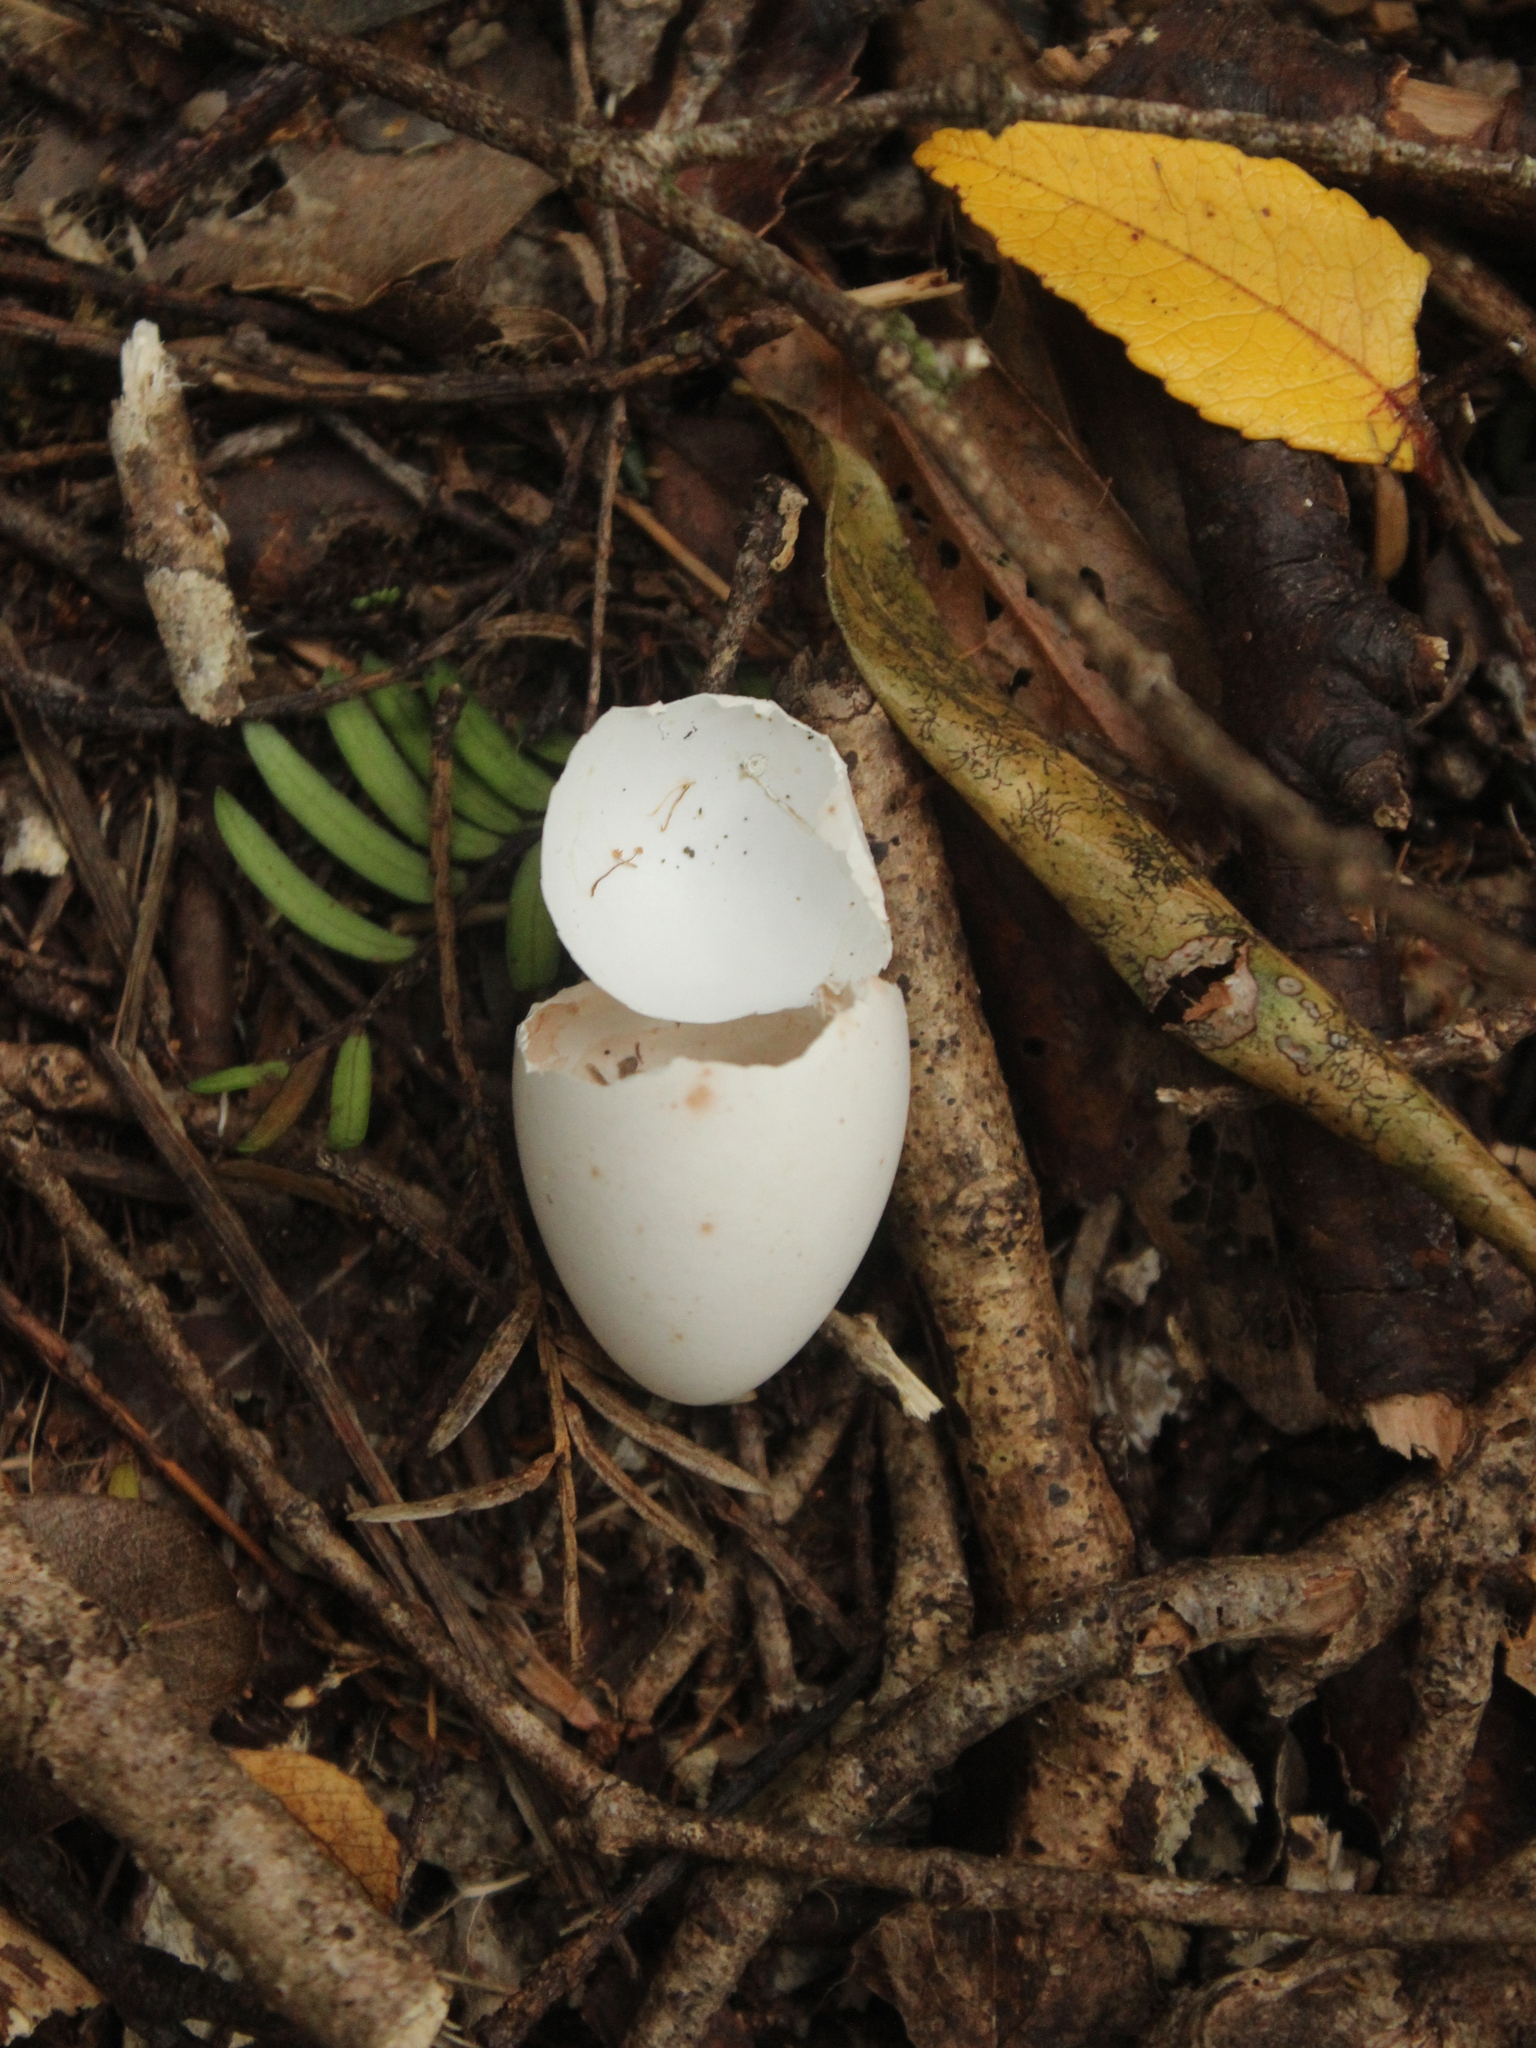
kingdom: Animalia
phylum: Chordata
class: Aves
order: Passeriformes
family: Meliphagidae
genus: Prosthemadera
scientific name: Prosthemadera novaeseelandiae
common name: Tui
